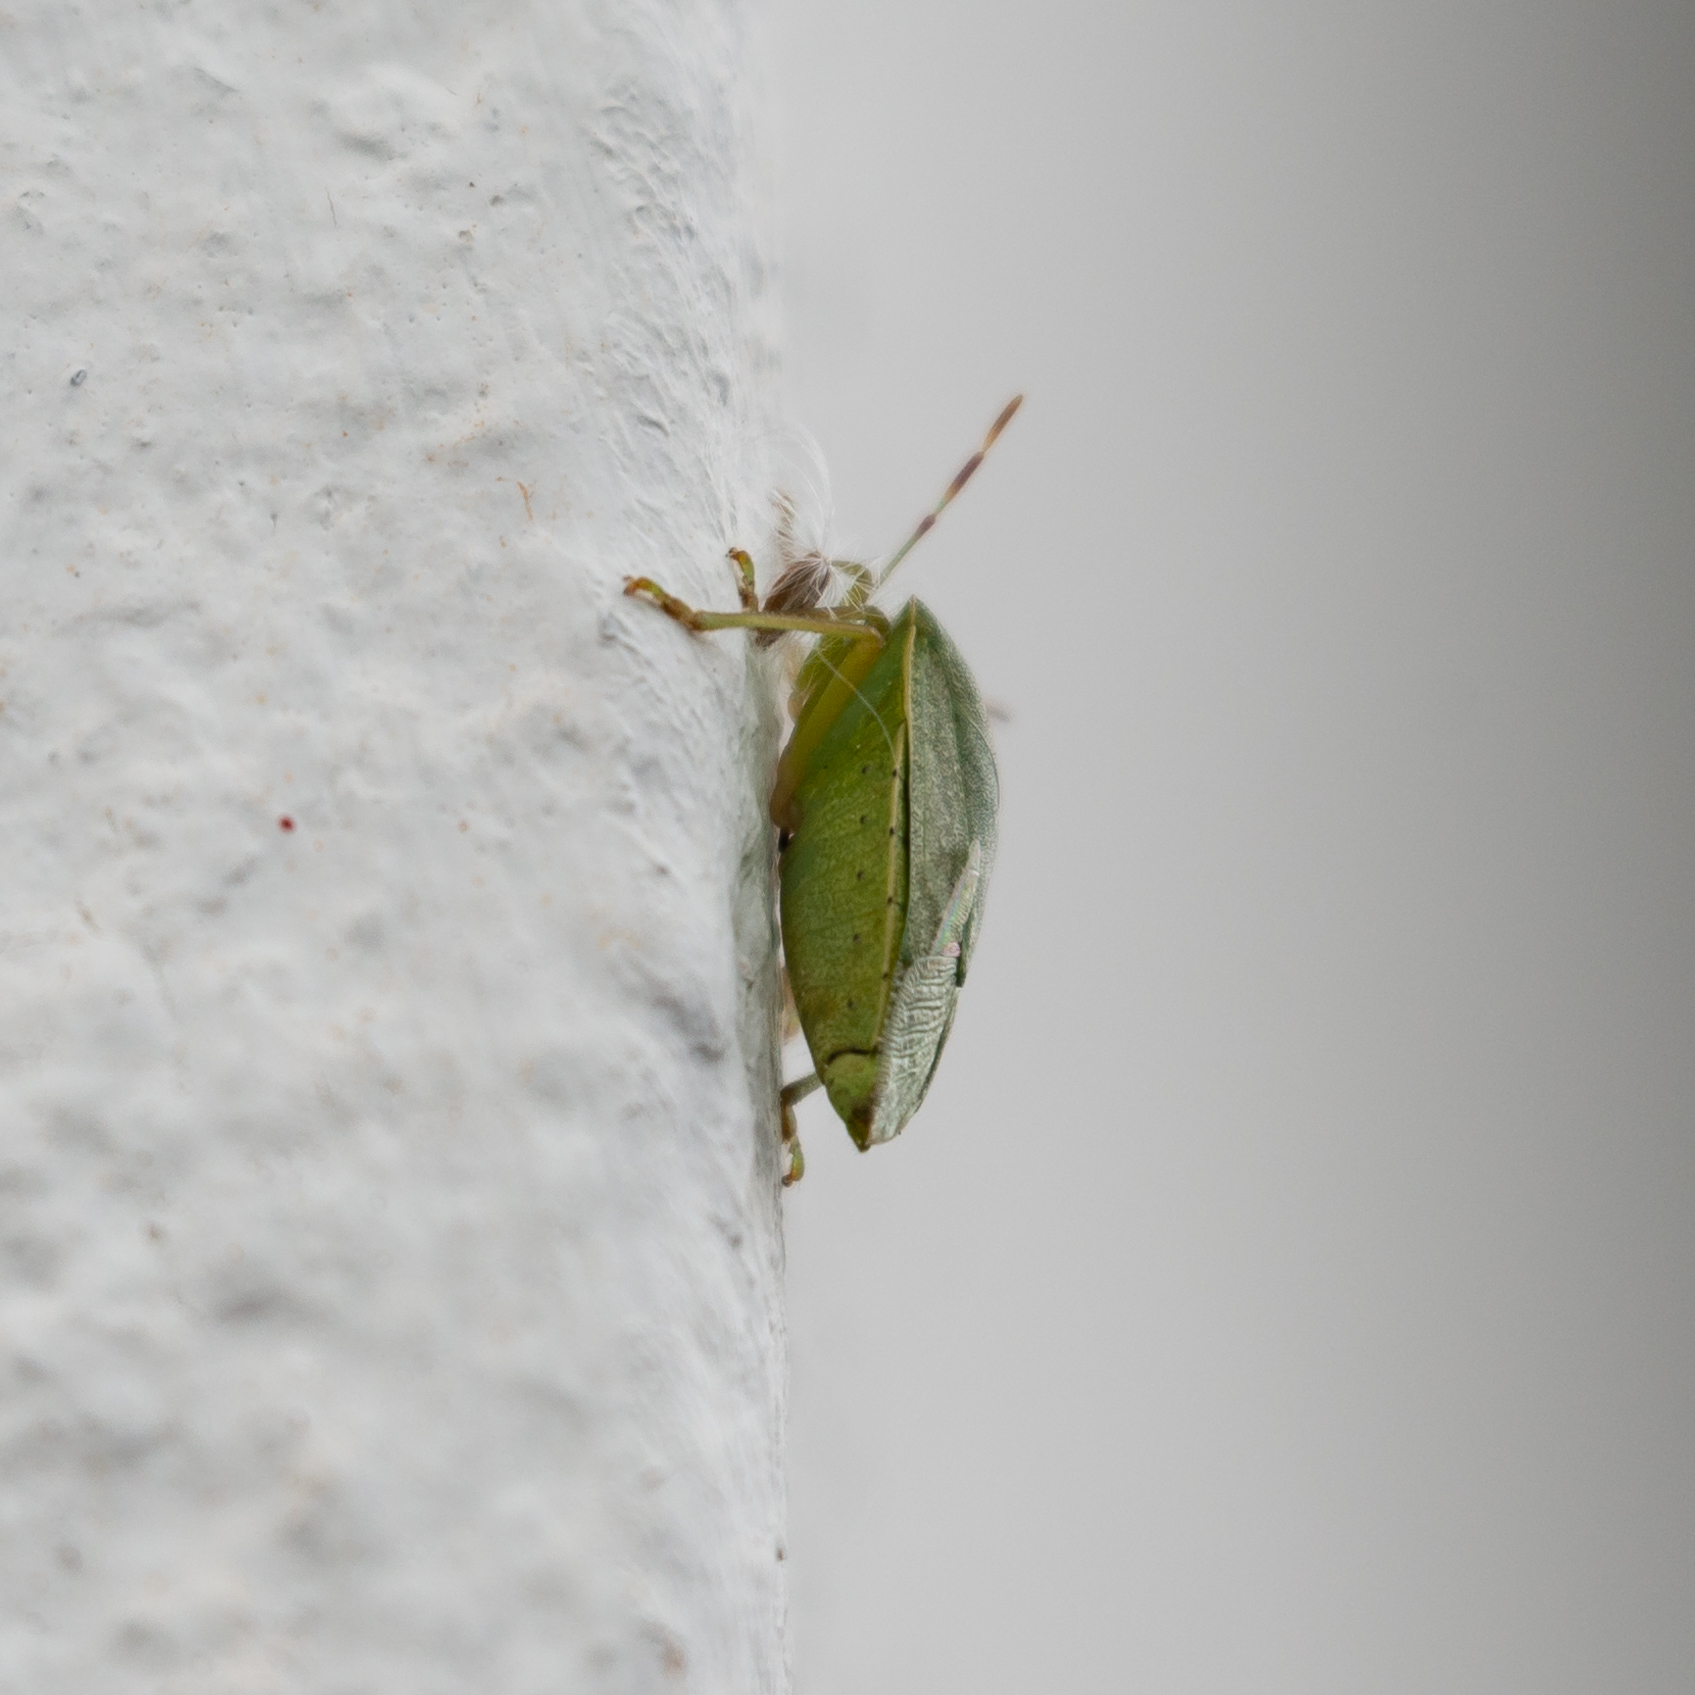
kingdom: Animalia
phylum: Arthropoda
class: Insecta
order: Hemiptera
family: Pentatomidae
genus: Nezara
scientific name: Nezara viridula
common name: Southern green stink bug
